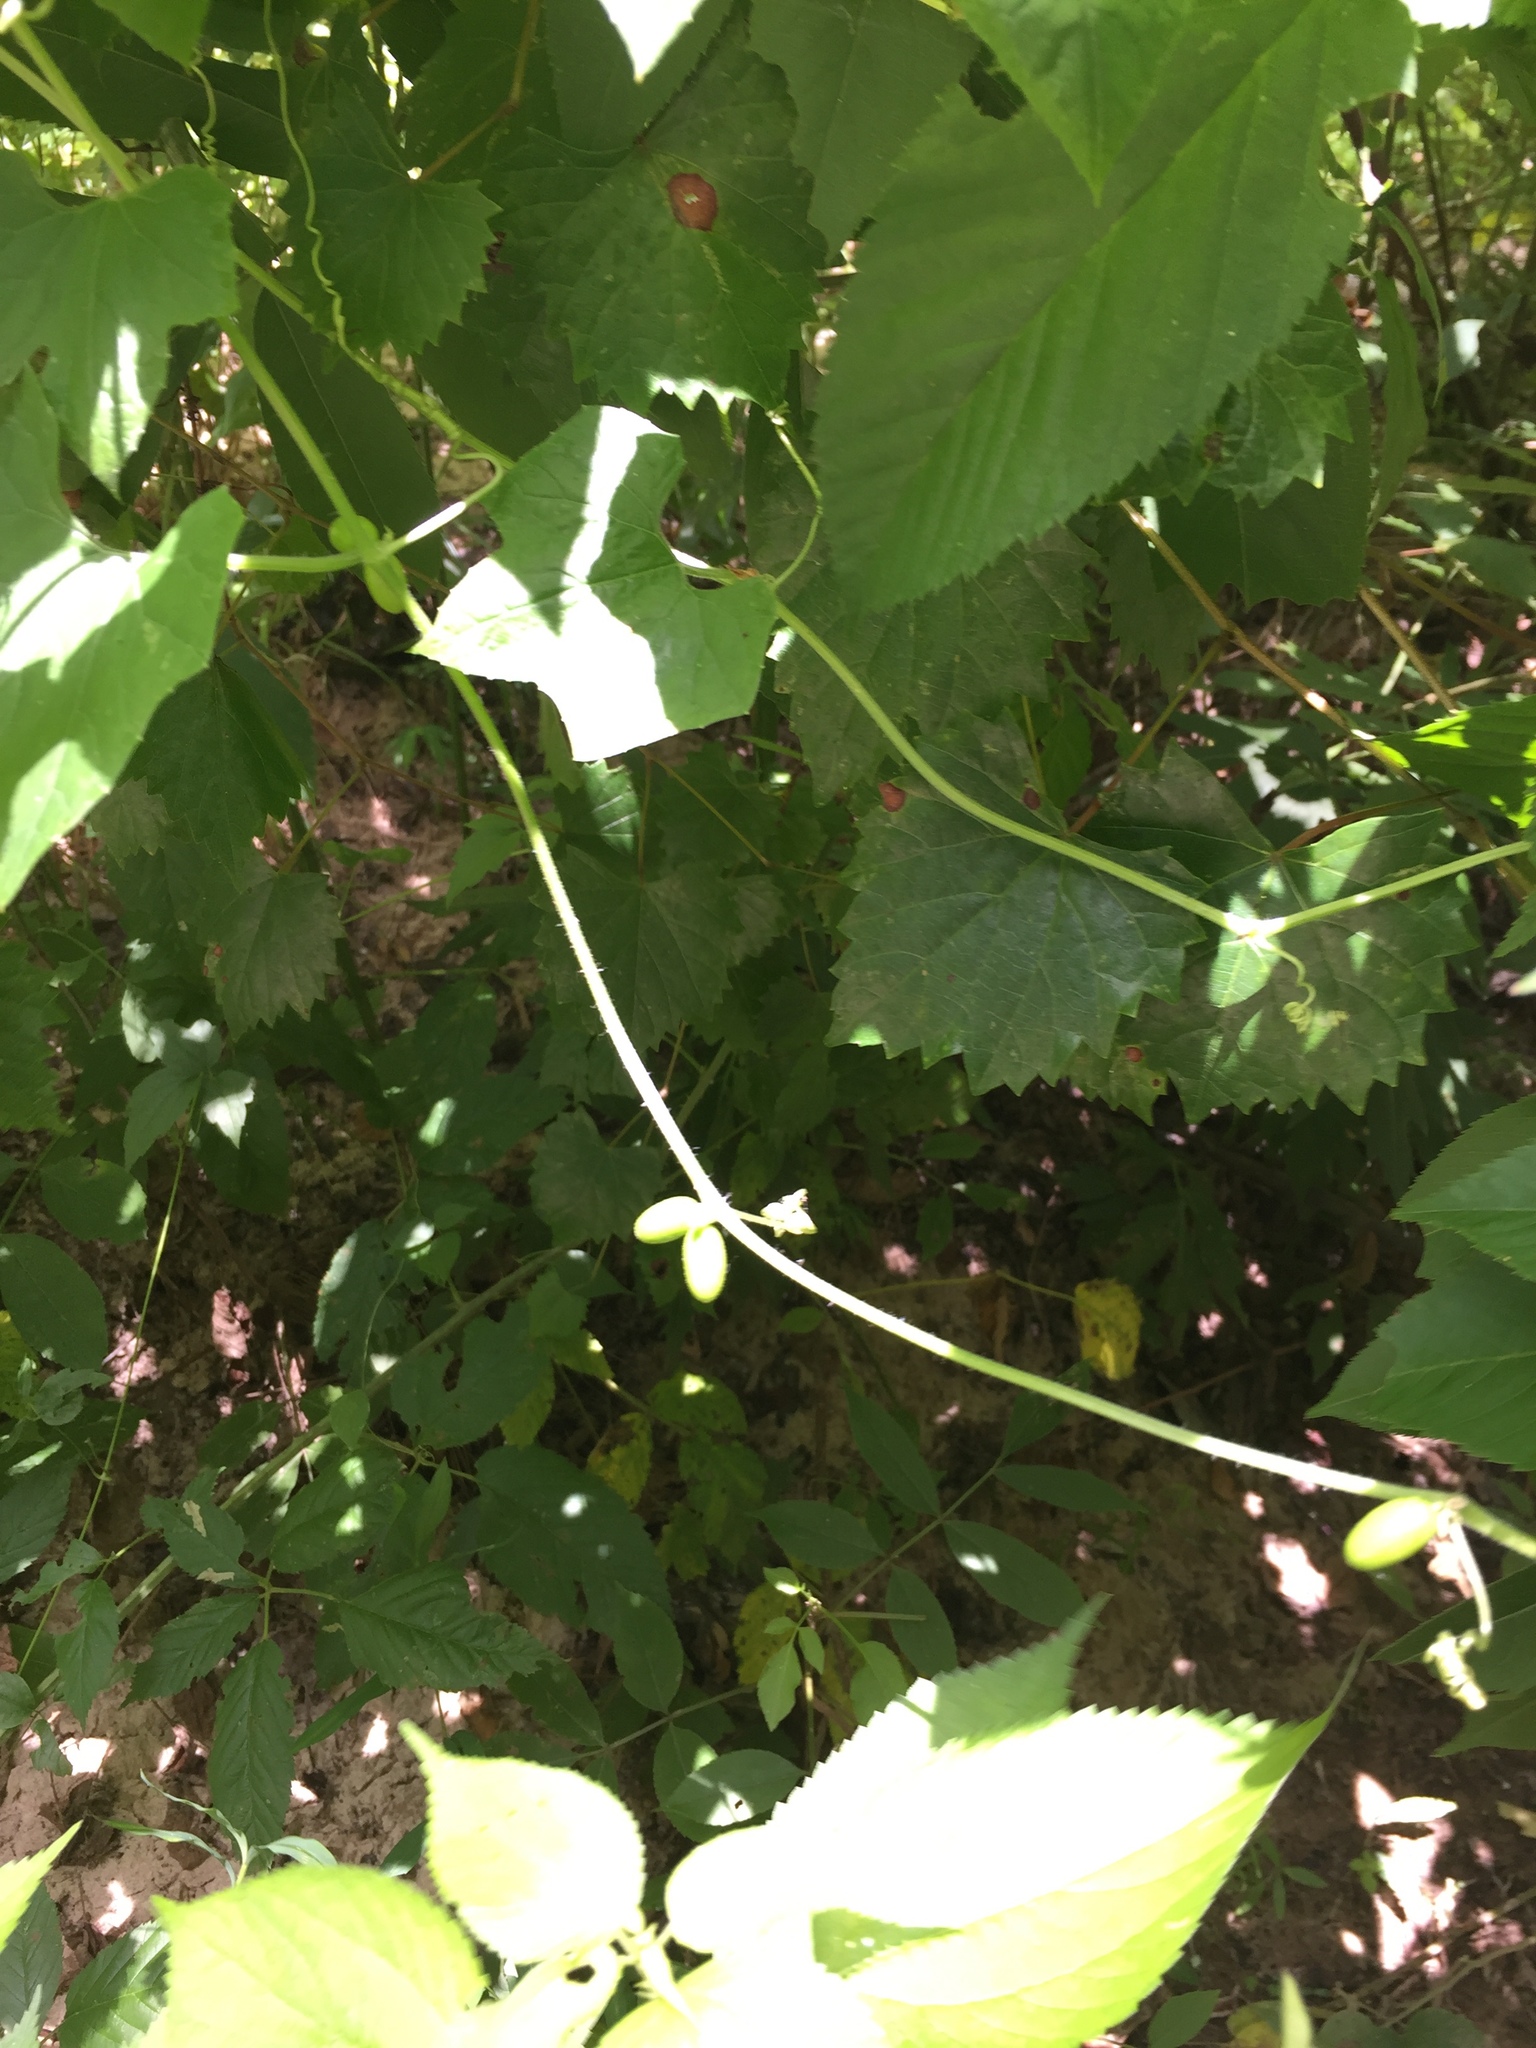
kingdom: Plantae
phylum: Tracheophyta
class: Magnoliopsida
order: Cucurbitales
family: Cucurbitaceae
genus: Cayaponia
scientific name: Cayaponia quinqueloba
